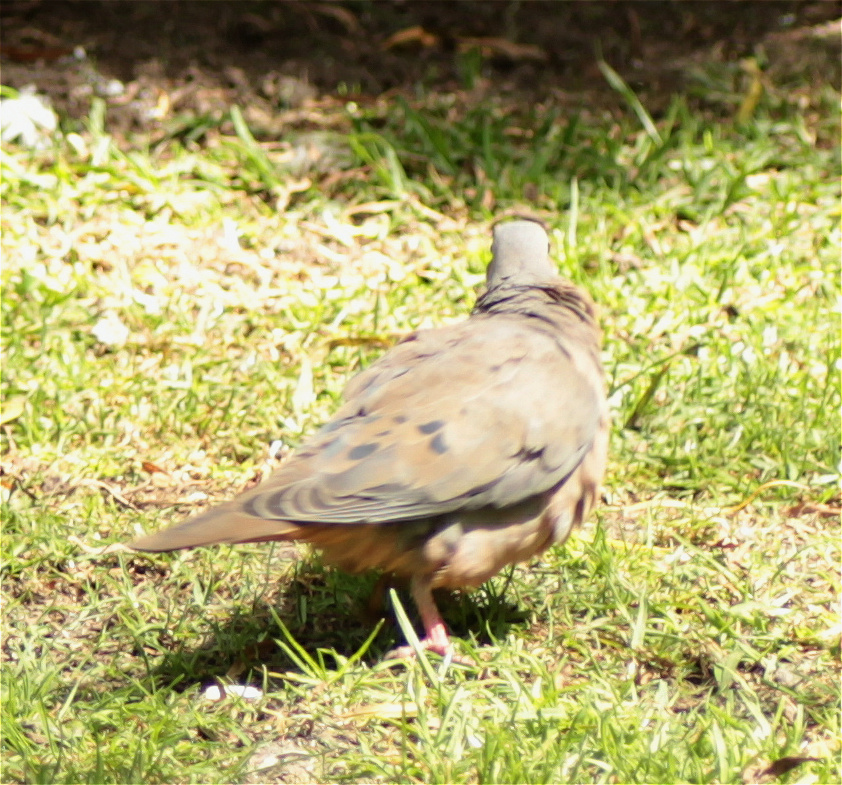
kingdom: Animalia
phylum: Chordata
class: Aves
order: Columbiformes
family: Columbidae
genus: Zenaida
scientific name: Zenaida auriculata
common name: Eared dove
